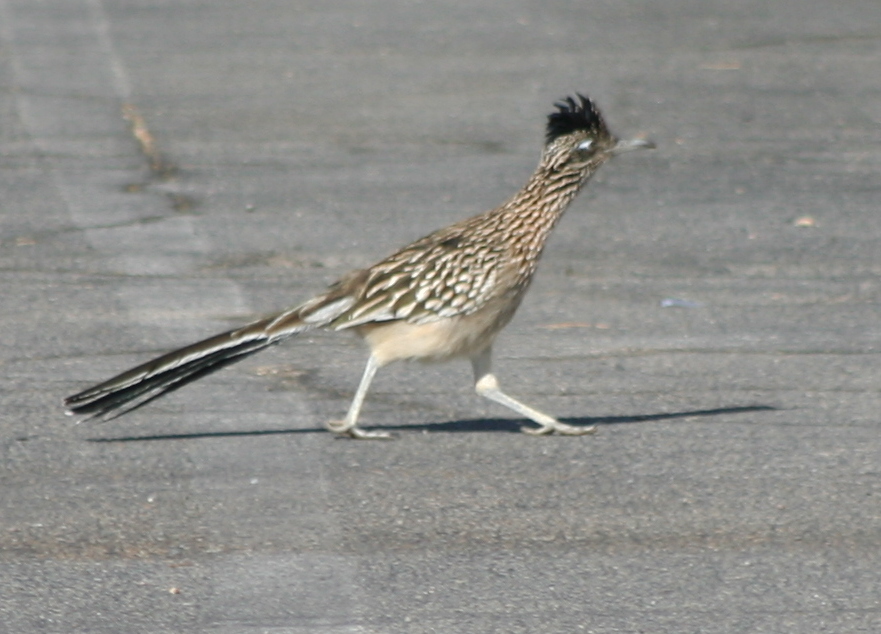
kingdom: Animalia
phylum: Chordata
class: Aves
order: Cuculiformes
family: Cuculidae
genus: Geococcyx
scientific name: Geococcyx californianus
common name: Greater roadrunner
